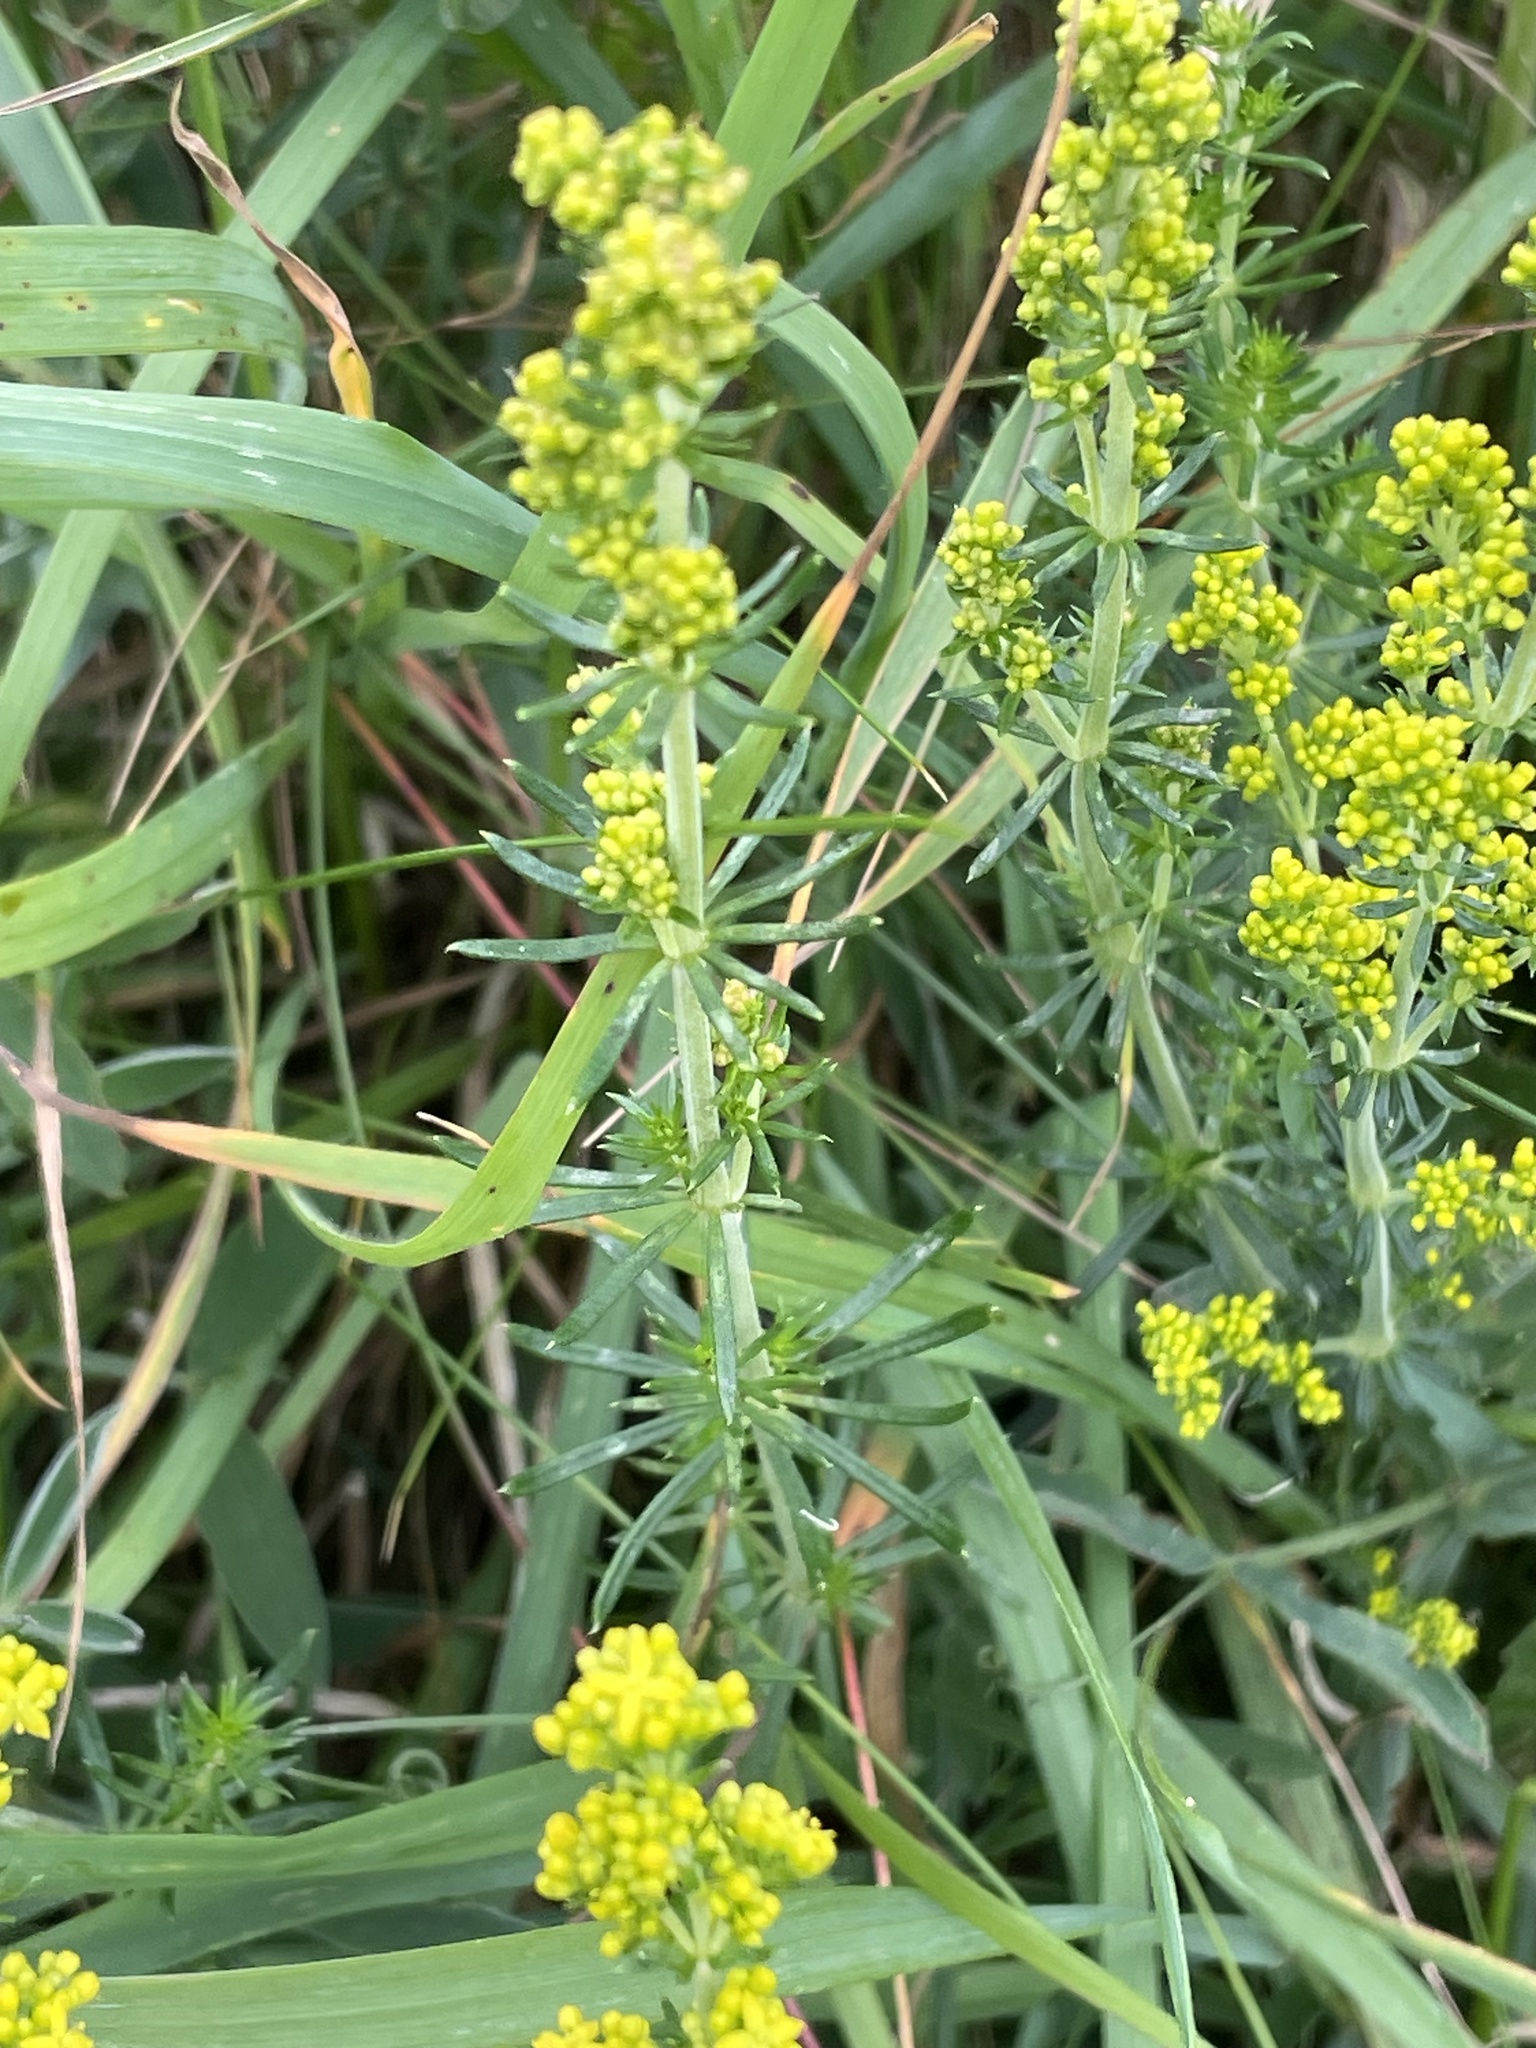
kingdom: Plantae
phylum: Tracheophyta
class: Magnoliopsida
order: Gentianales
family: Rubiaceae
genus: Galium
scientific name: Galium verum
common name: Lady's bedstraw
